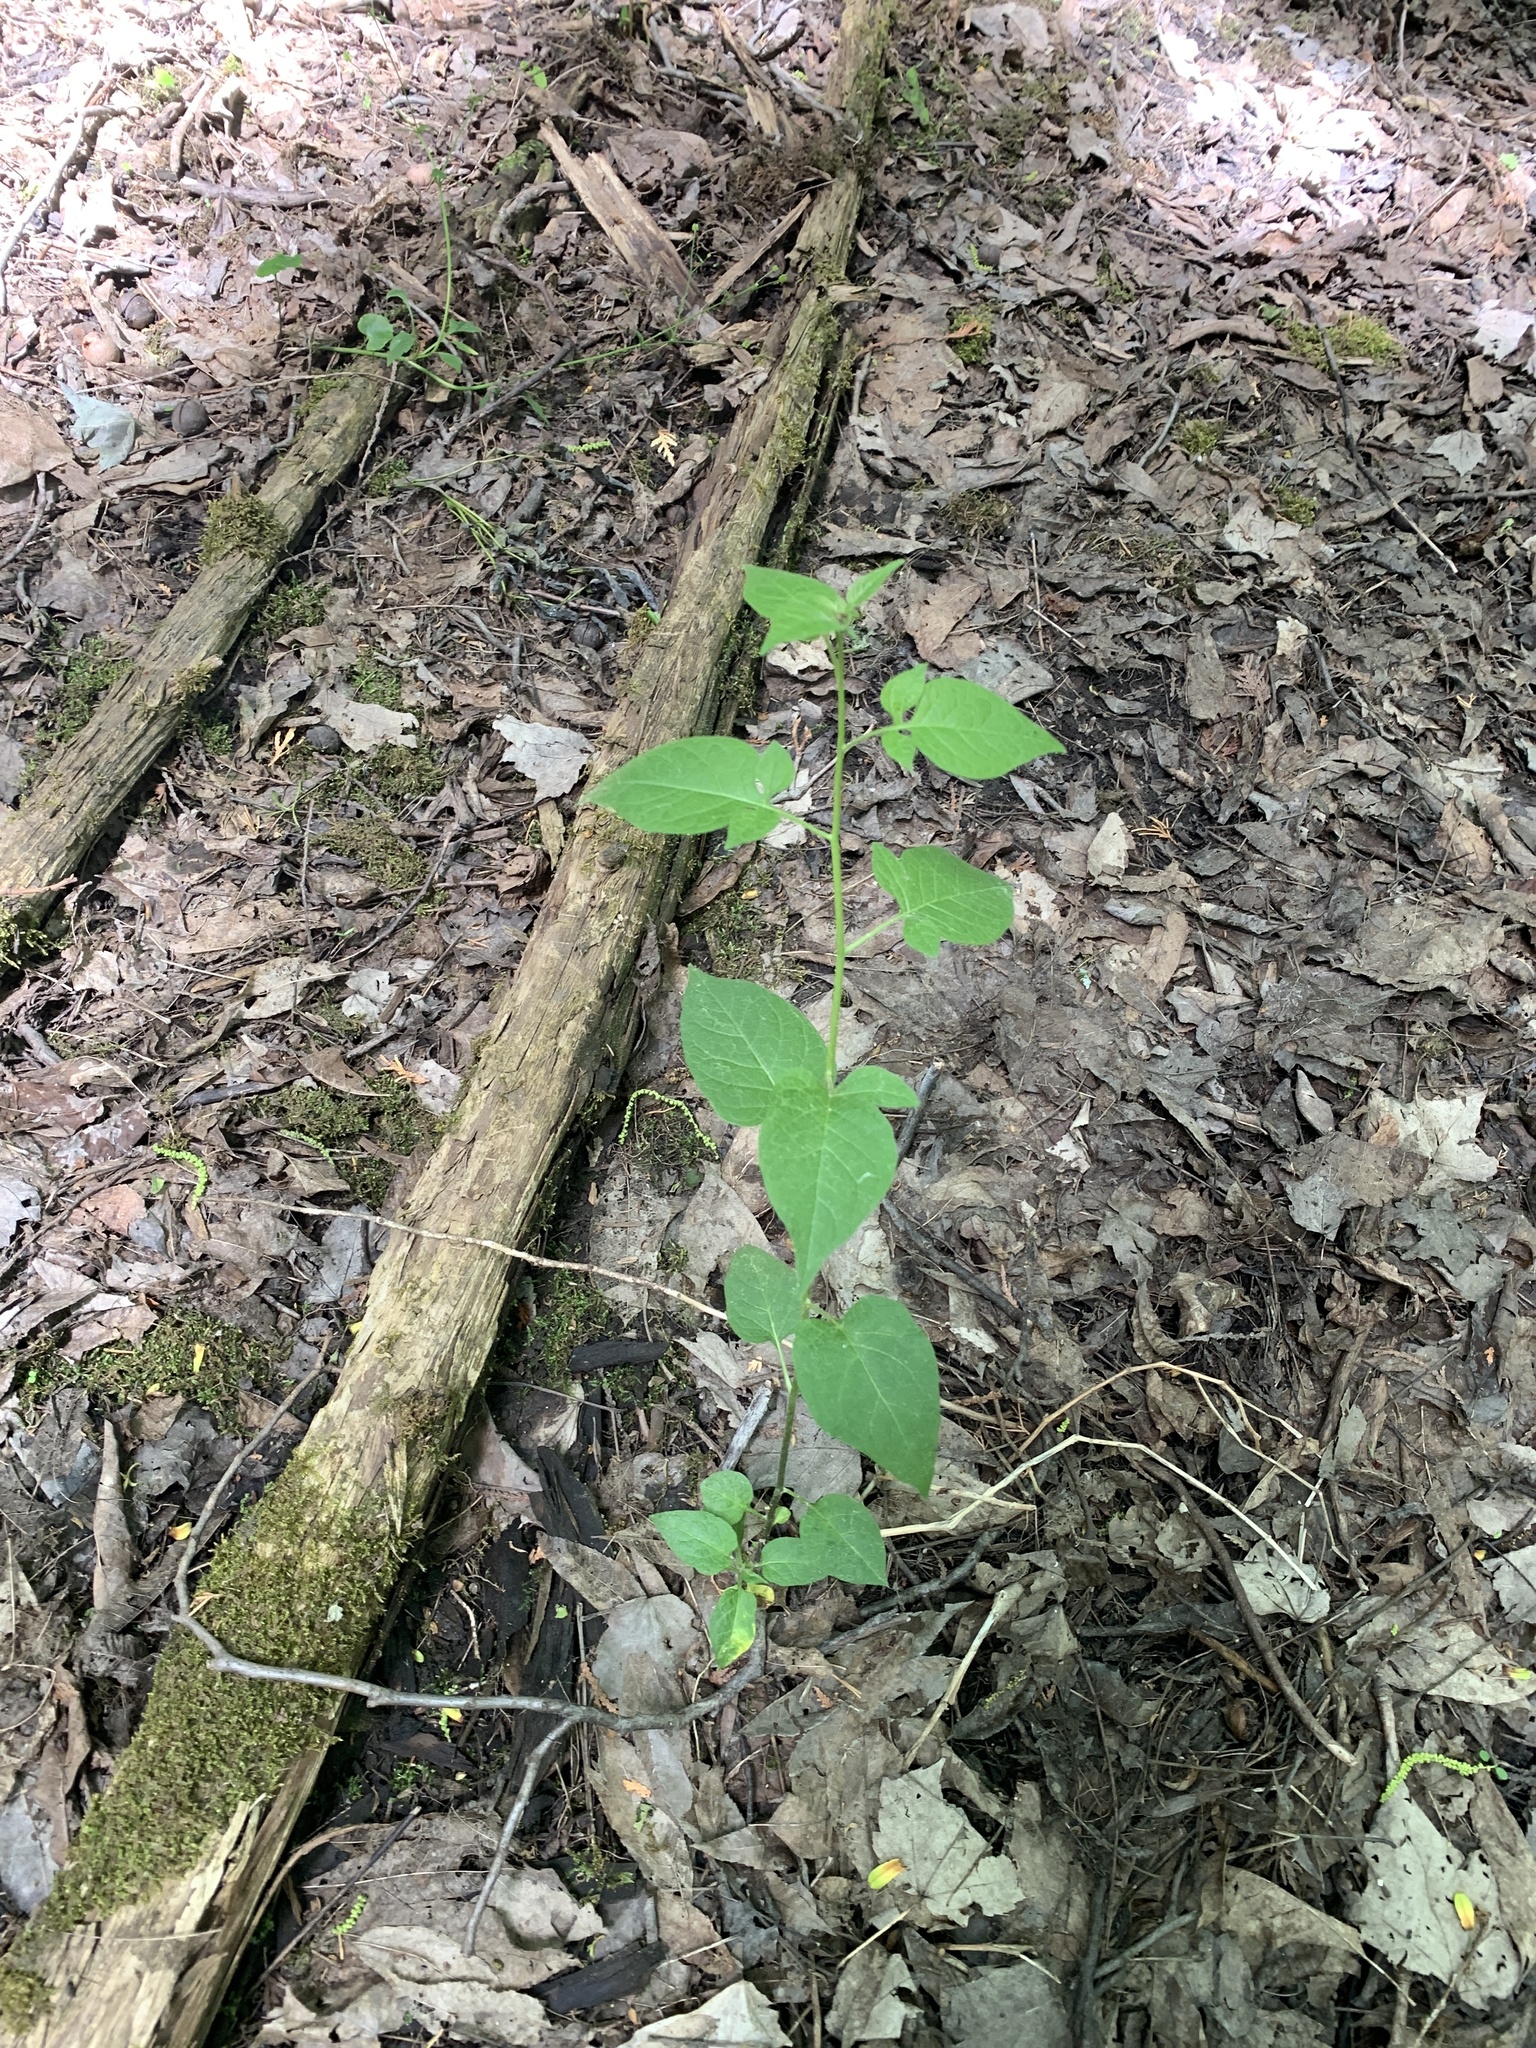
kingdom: Plantae
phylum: Tracheophyta
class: Magnoliopsida
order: Solanales
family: Solanaceae
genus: Solanum
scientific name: Solanum dulcamara
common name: Climbing nightshade
